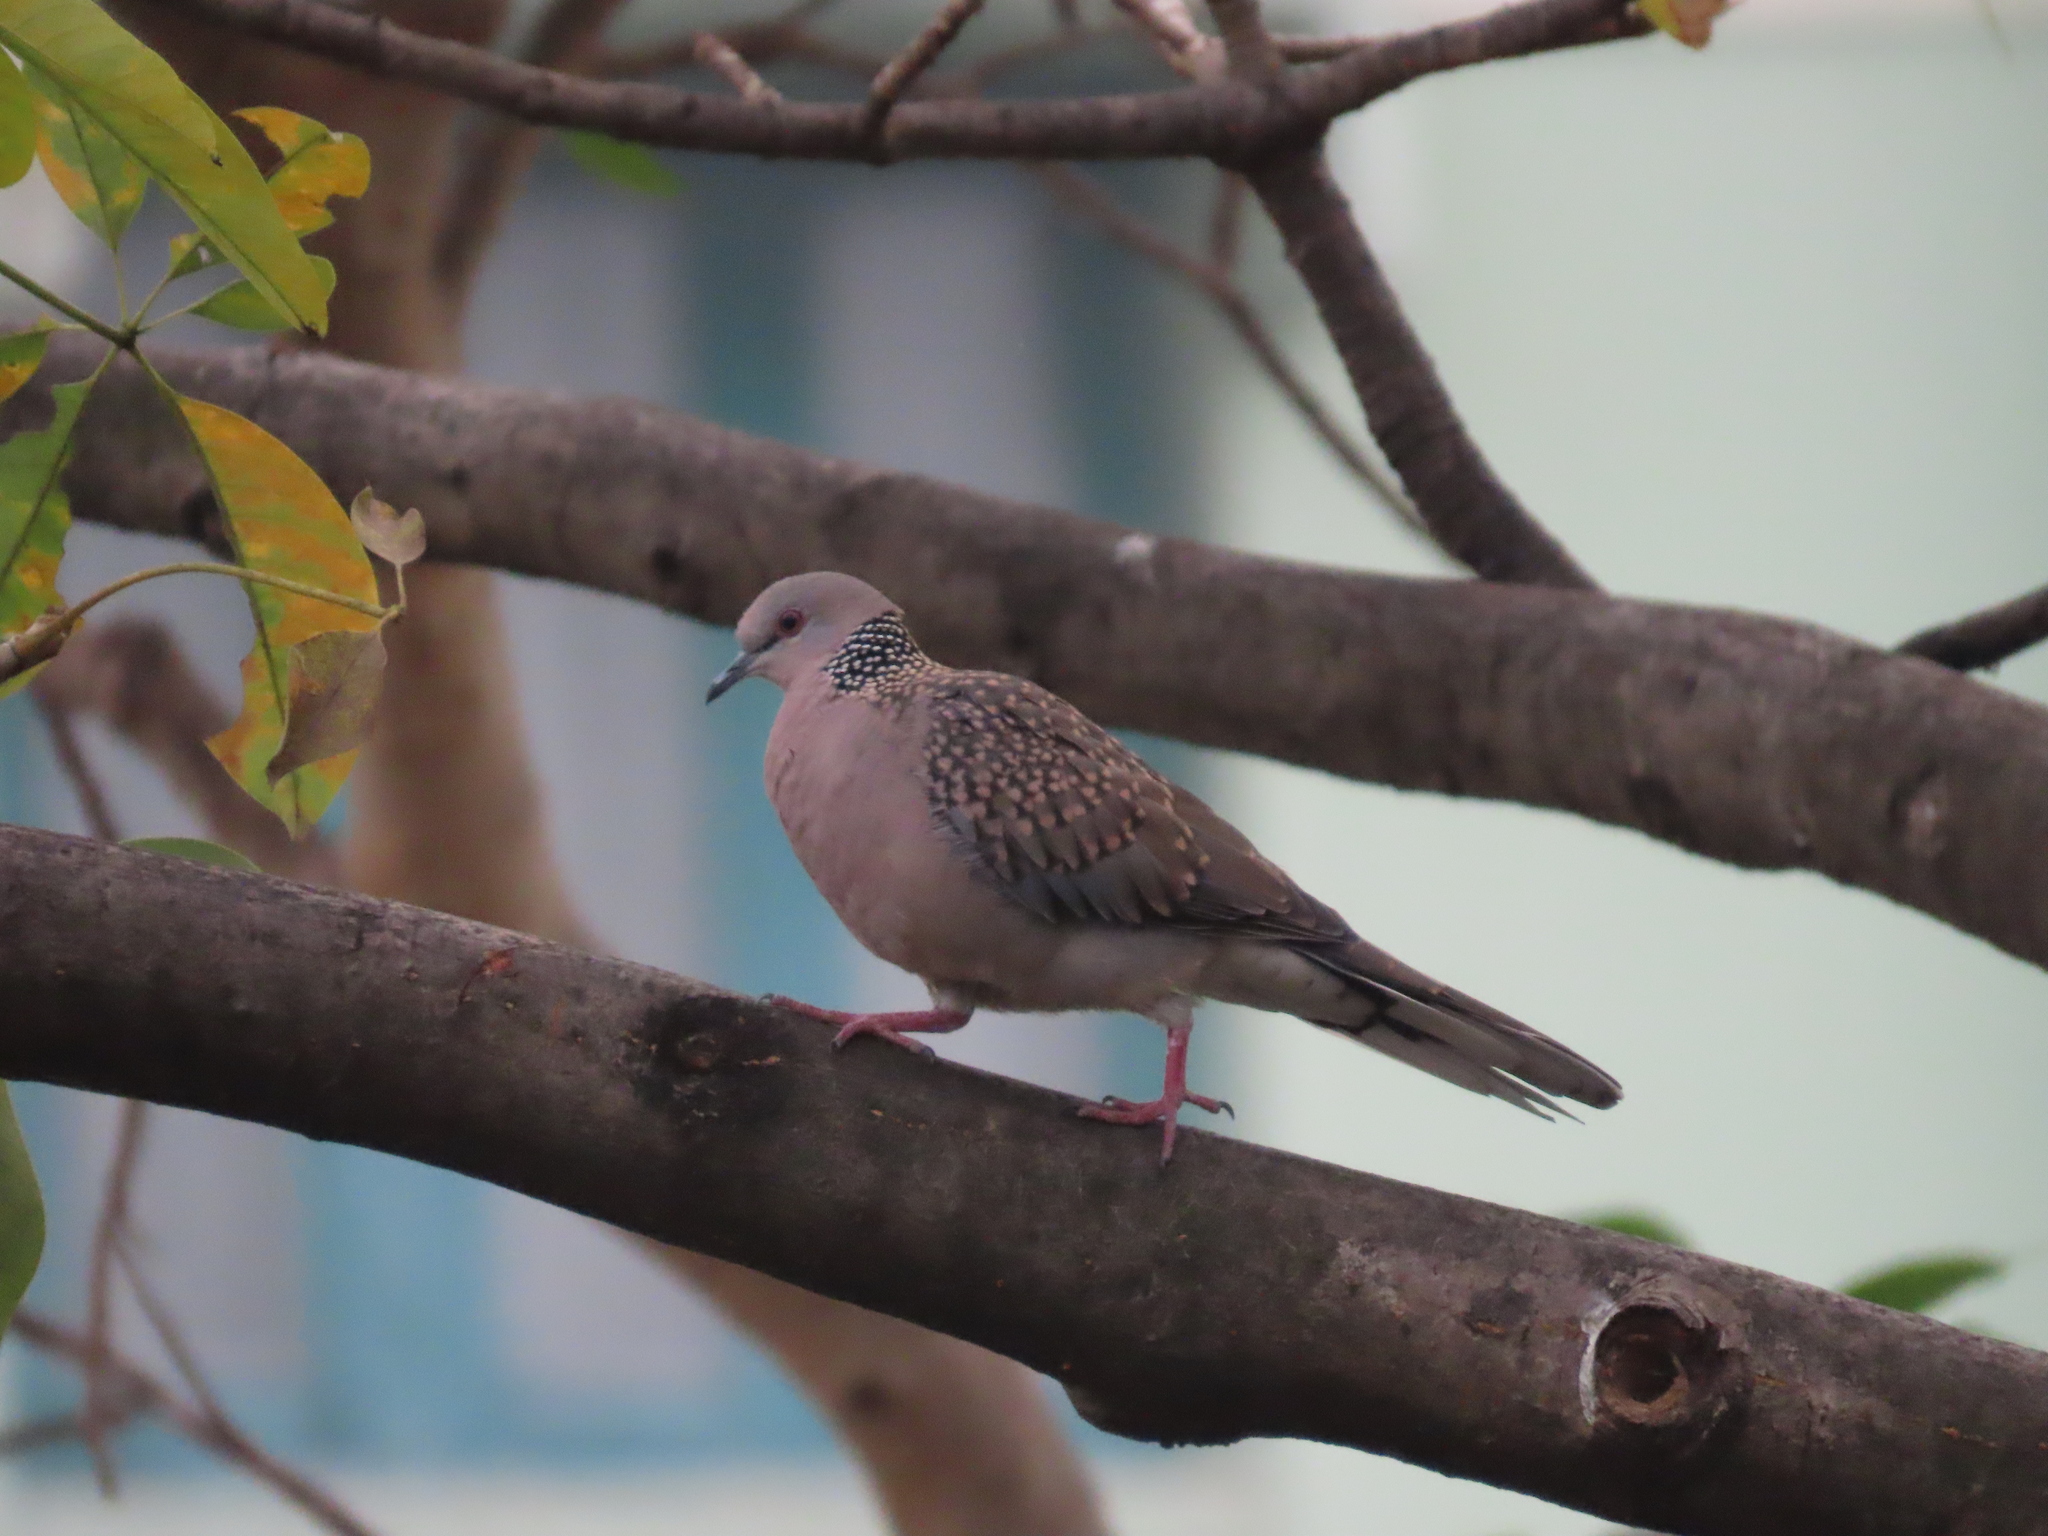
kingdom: Animalia
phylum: Chordata
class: Aves
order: Columbiformes
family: Columbidae
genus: Spilopelia
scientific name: Spilopelia chinensis
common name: Spotted dove
